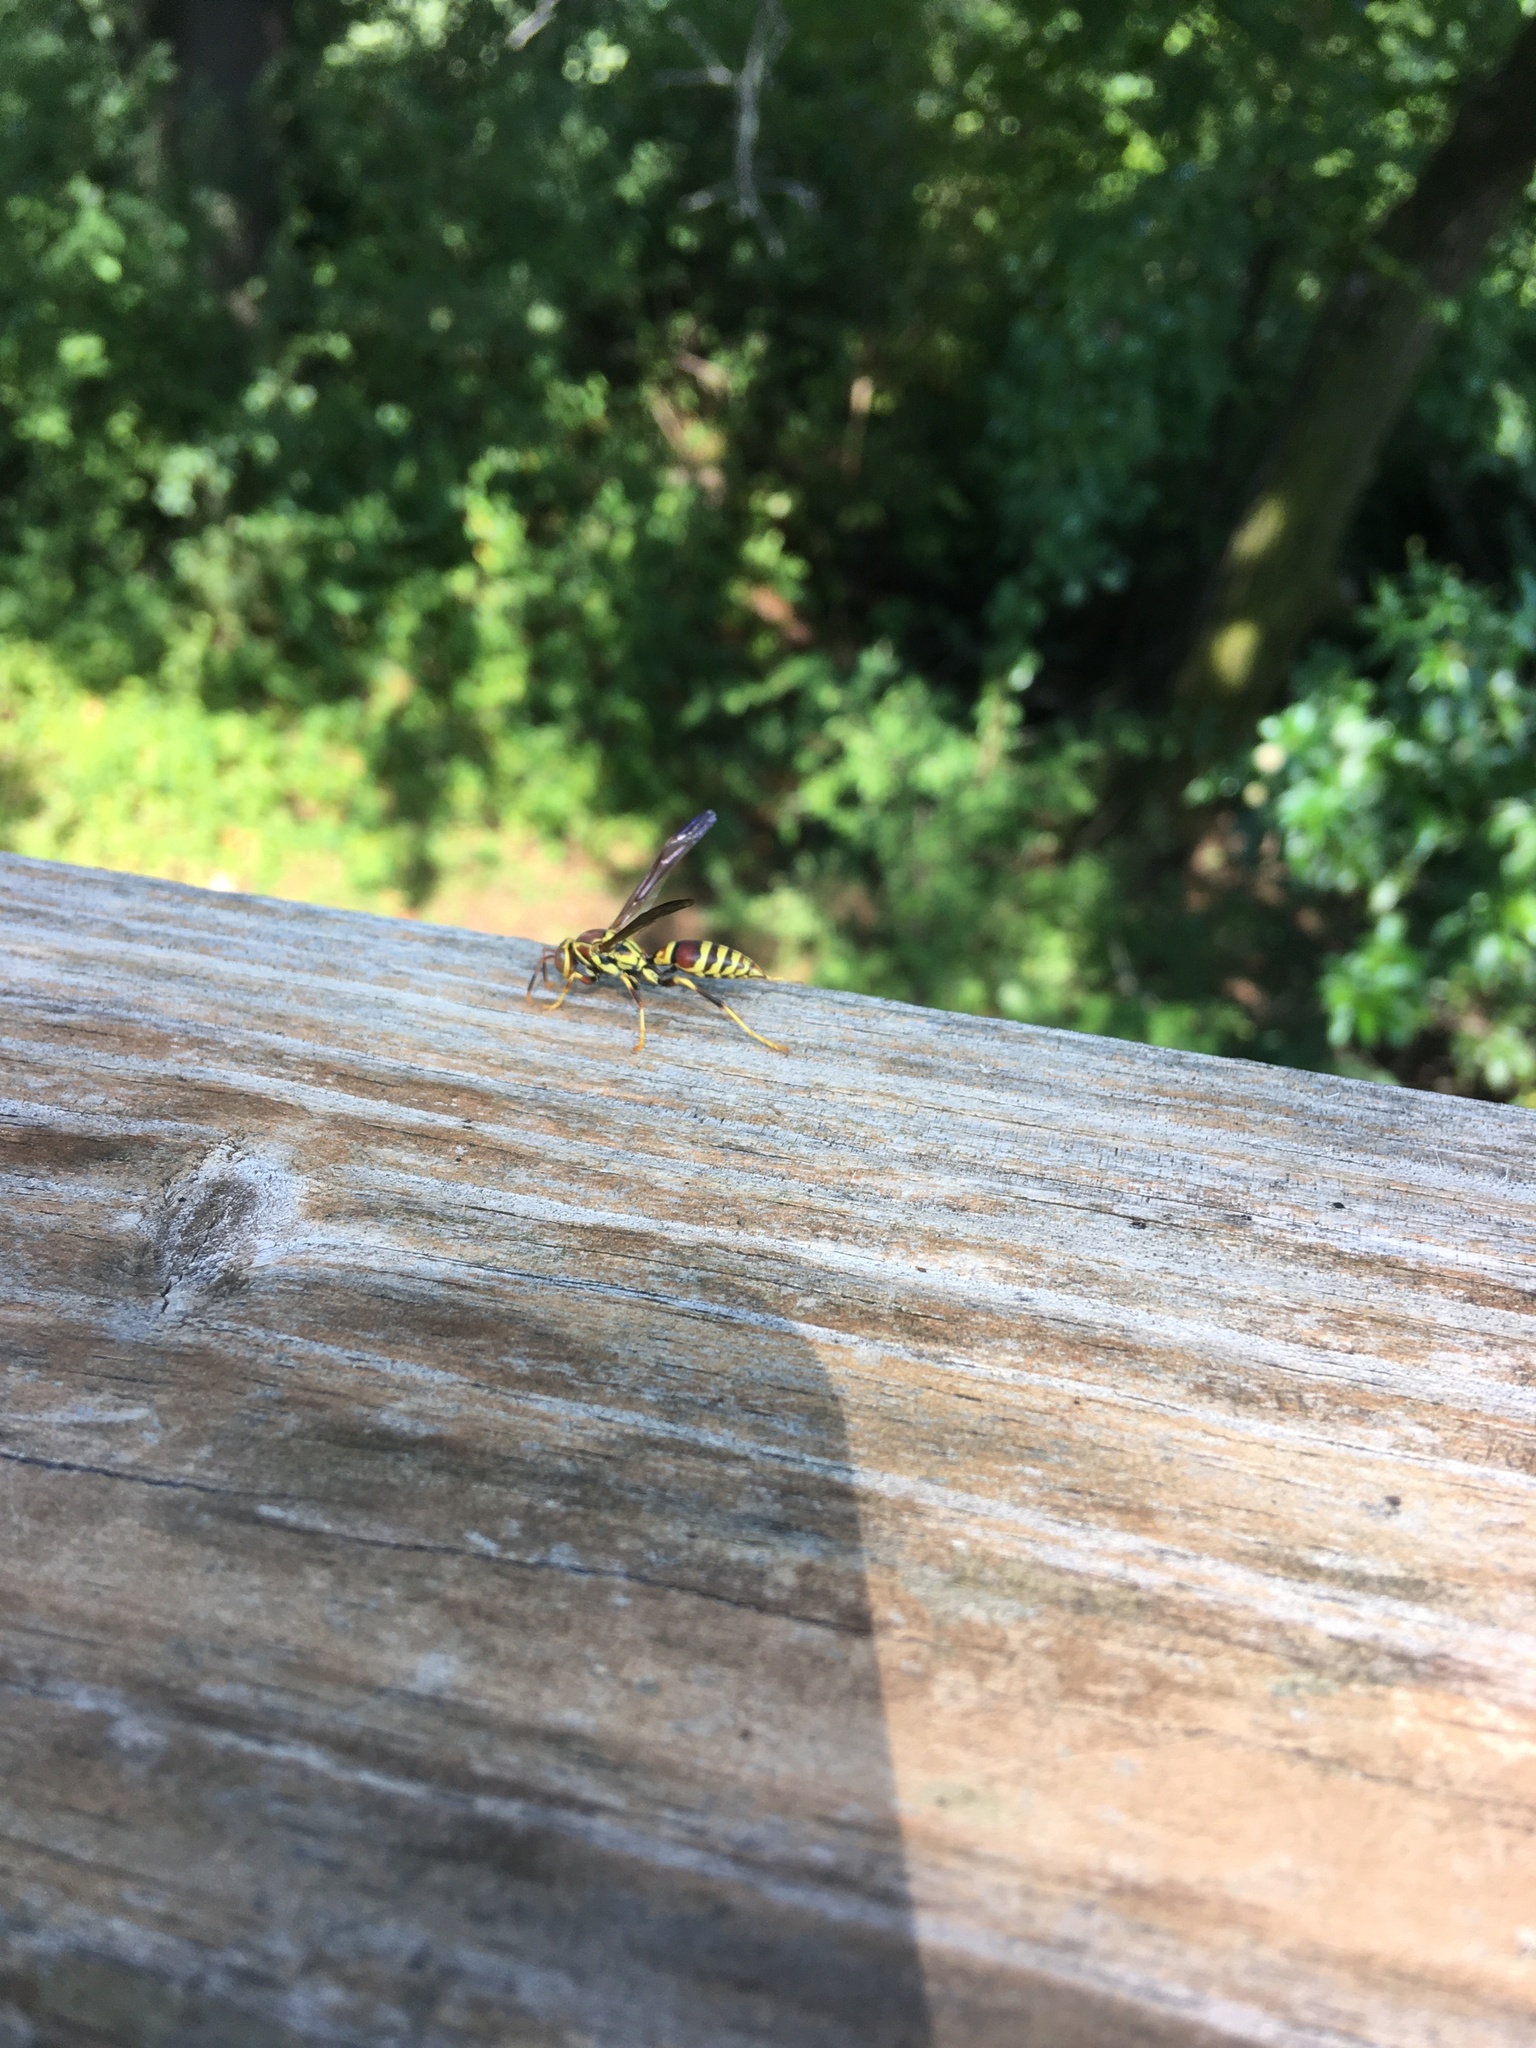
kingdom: Animalia
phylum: Arthropoda
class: Insecta
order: Hymenoptera
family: Eumenidae
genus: Polistes
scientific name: Polistes exclamans
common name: Paper wasp
